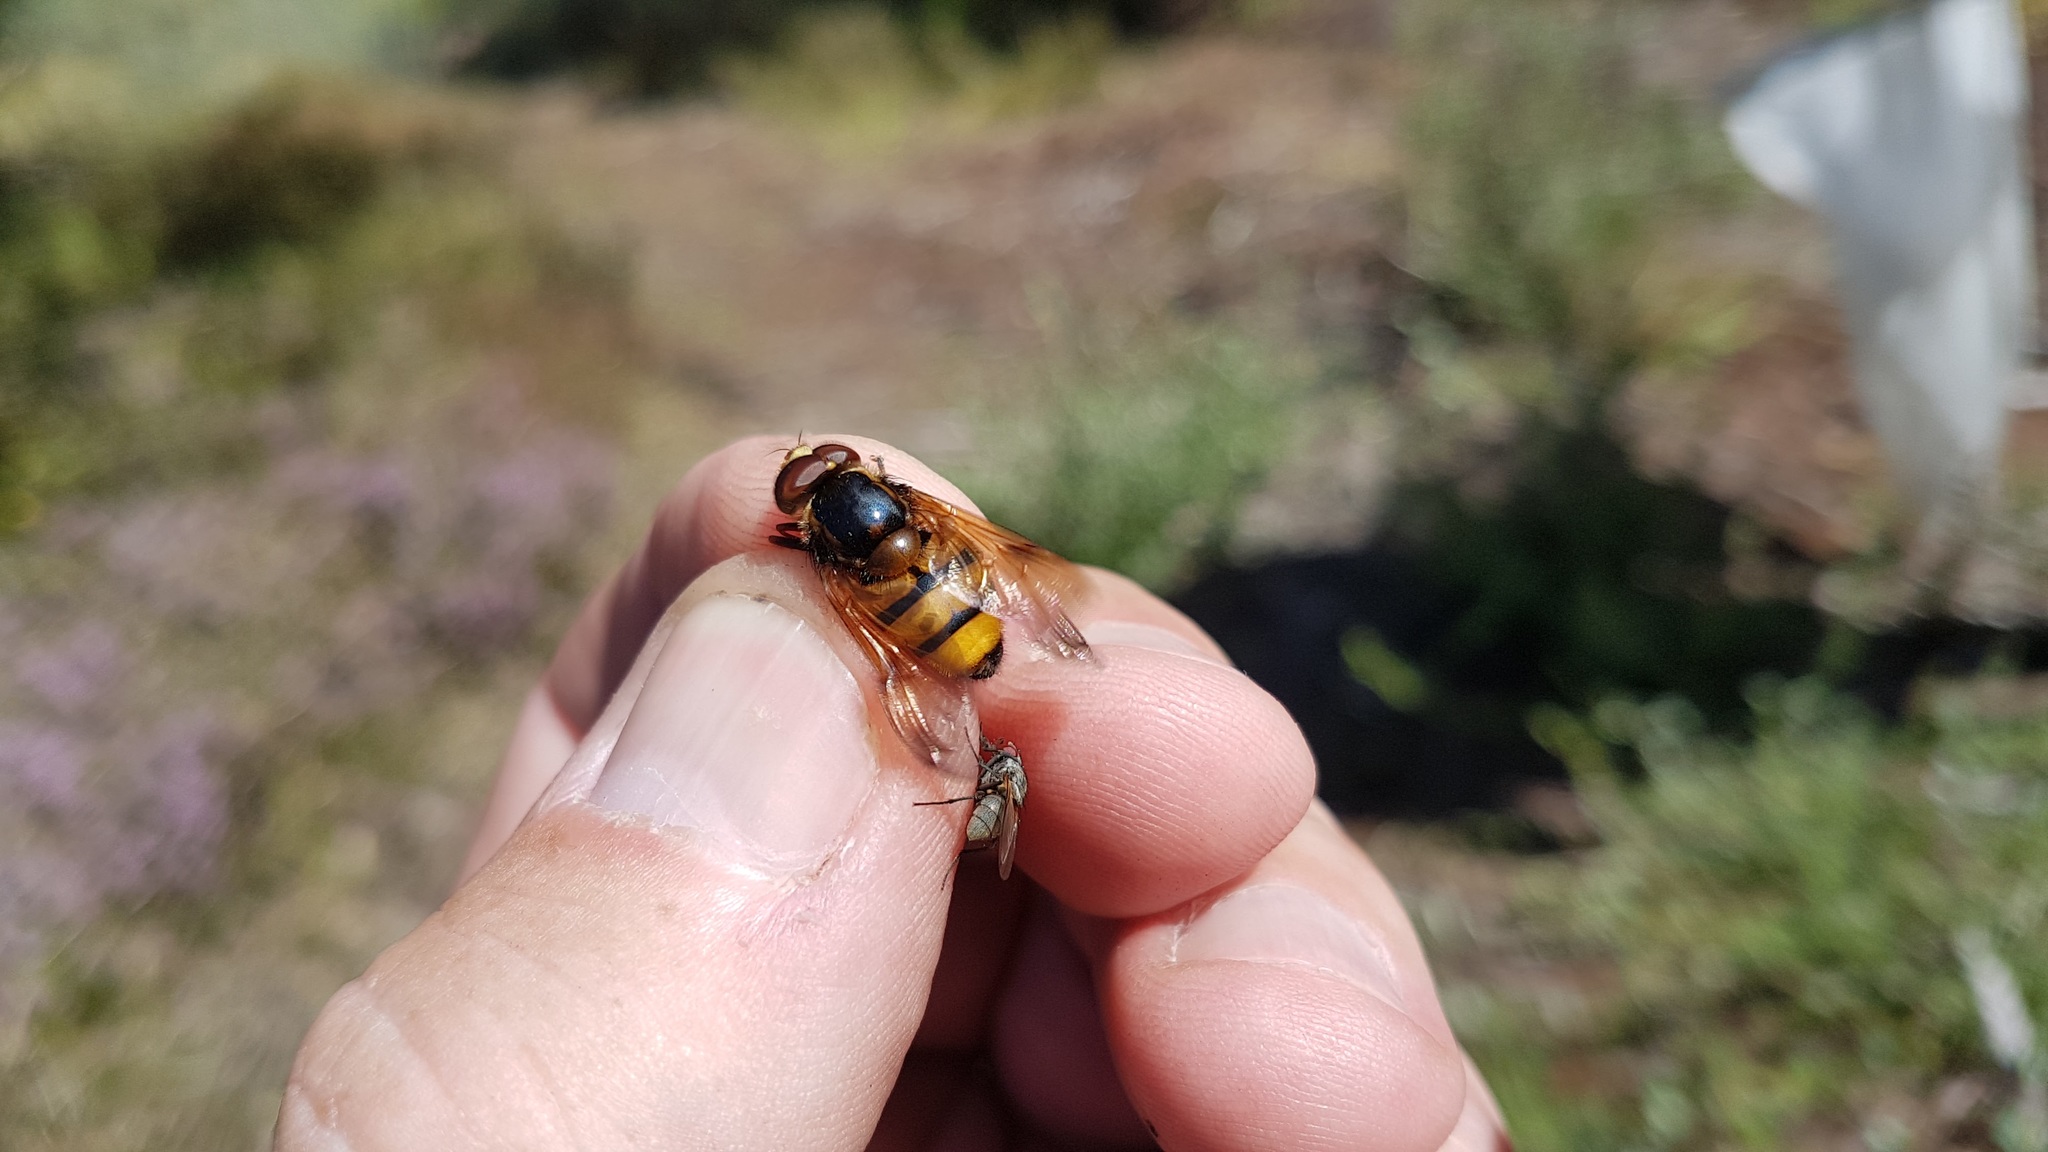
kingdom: Animalia
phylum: Arthropoda
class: Insecta
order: Diptera
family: Syrphidae
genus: Volucella
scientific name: Volucella inanis
